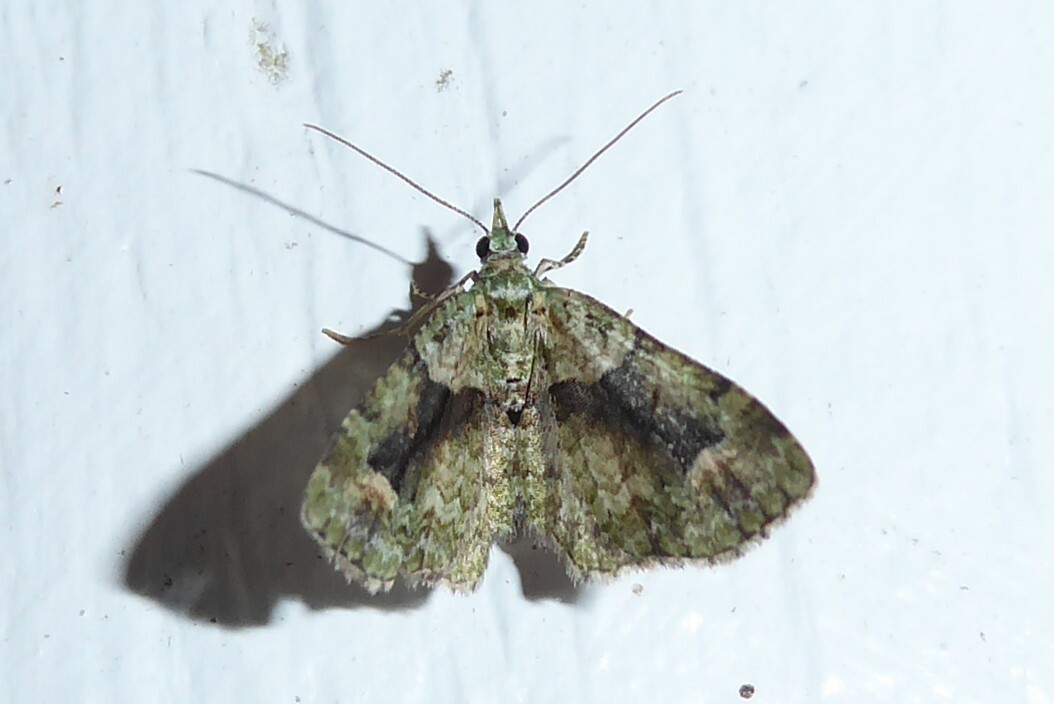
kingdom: Animalia
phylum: Arthropoda
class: Insecta
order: Lepidoptera
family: Geometridae
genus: Pasiphila
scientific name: Pasiphila suffusa
